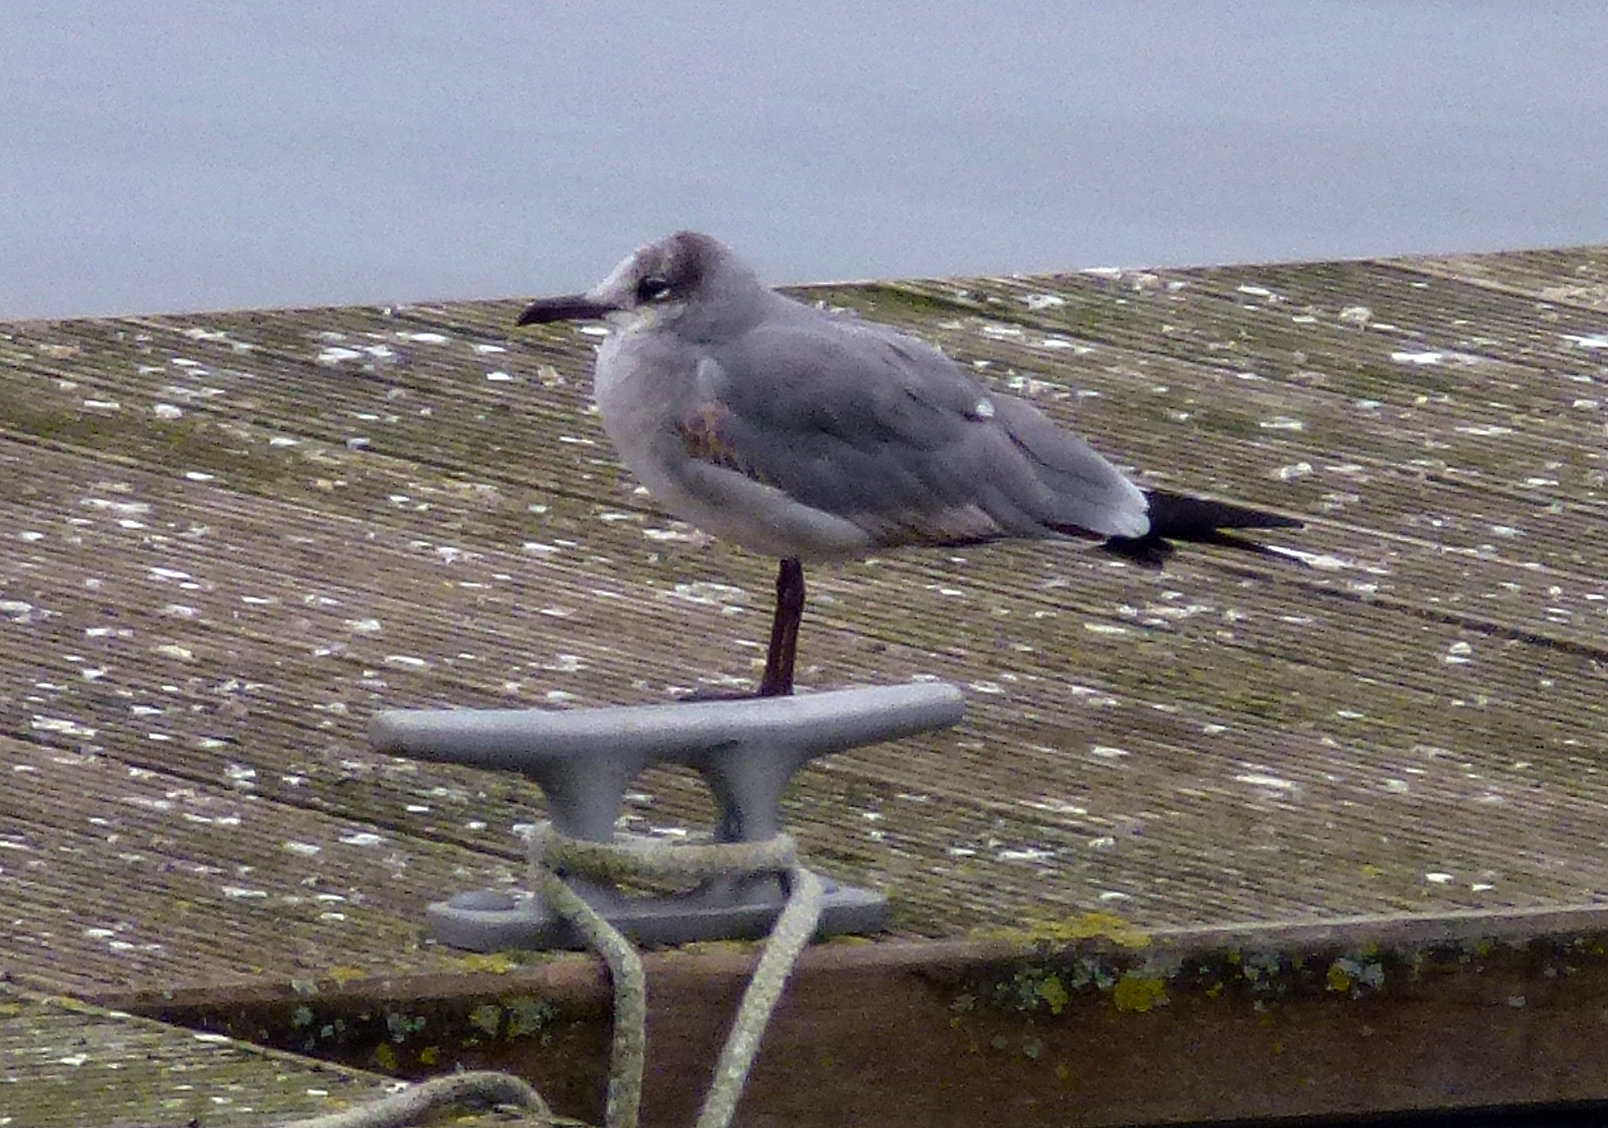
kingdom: Animalia
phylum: Chordata
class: Aves
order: Charadriiformes
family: Laridae
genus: Leucophaeus
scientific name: Leucophaeus atricilla
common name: Laughing gull
